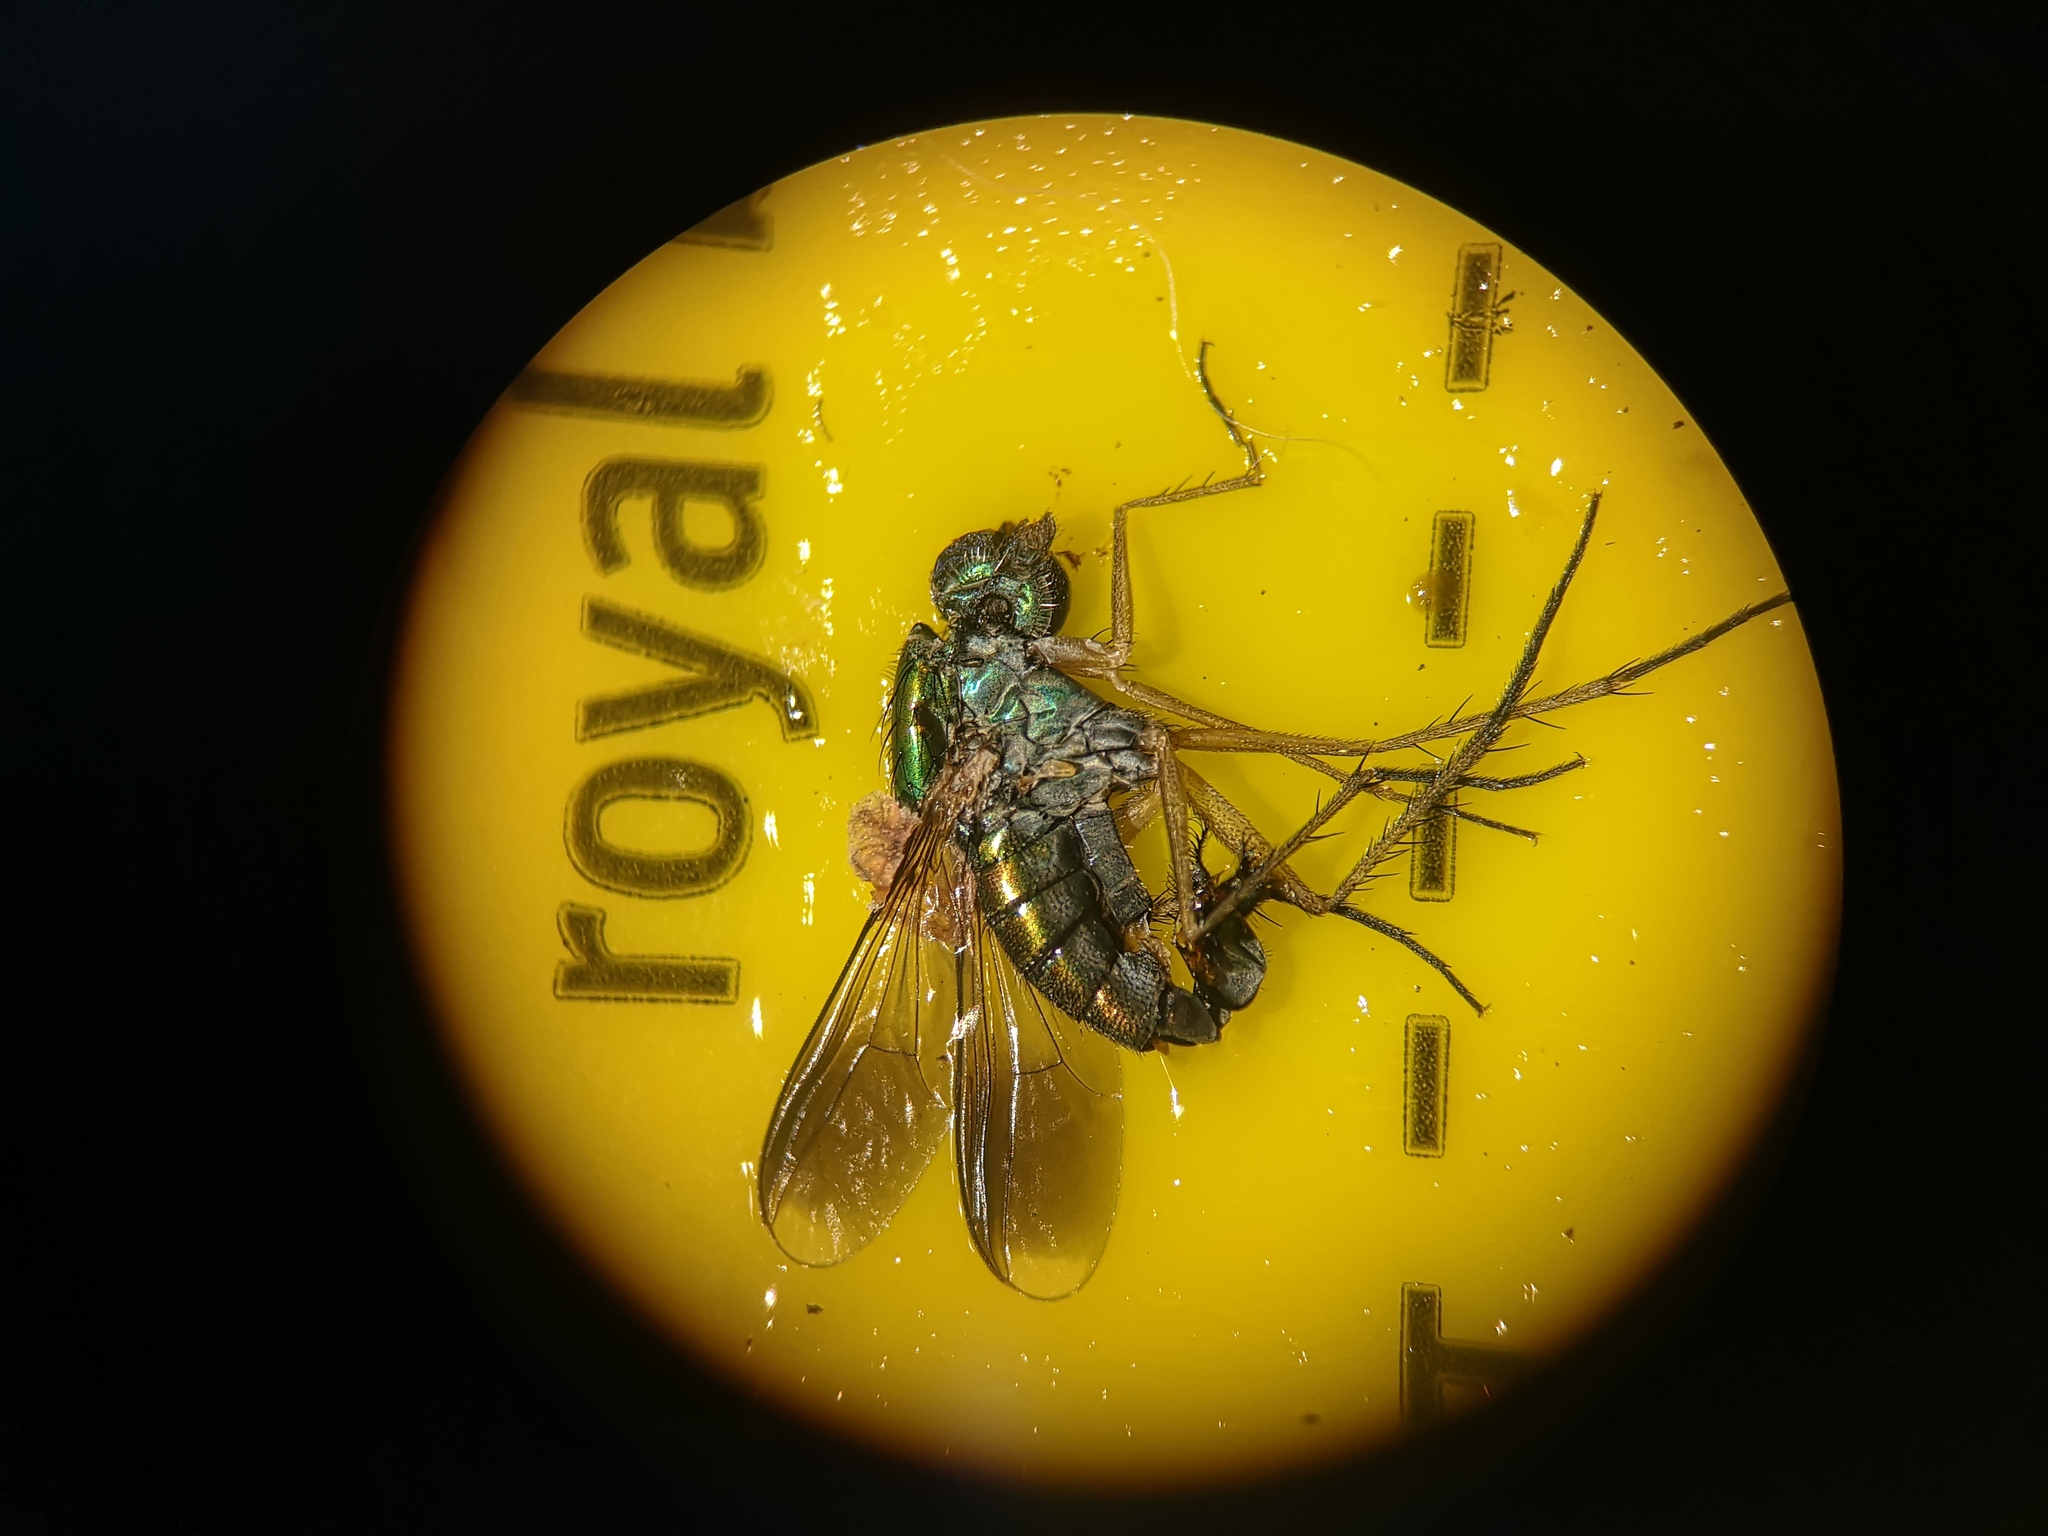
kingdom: Animalia
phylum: Arthropoda
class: Insecta
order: Diptera
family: Dolichopodidae
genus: Poecilobothrus
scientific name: Poecilobothrus nobilitatus
